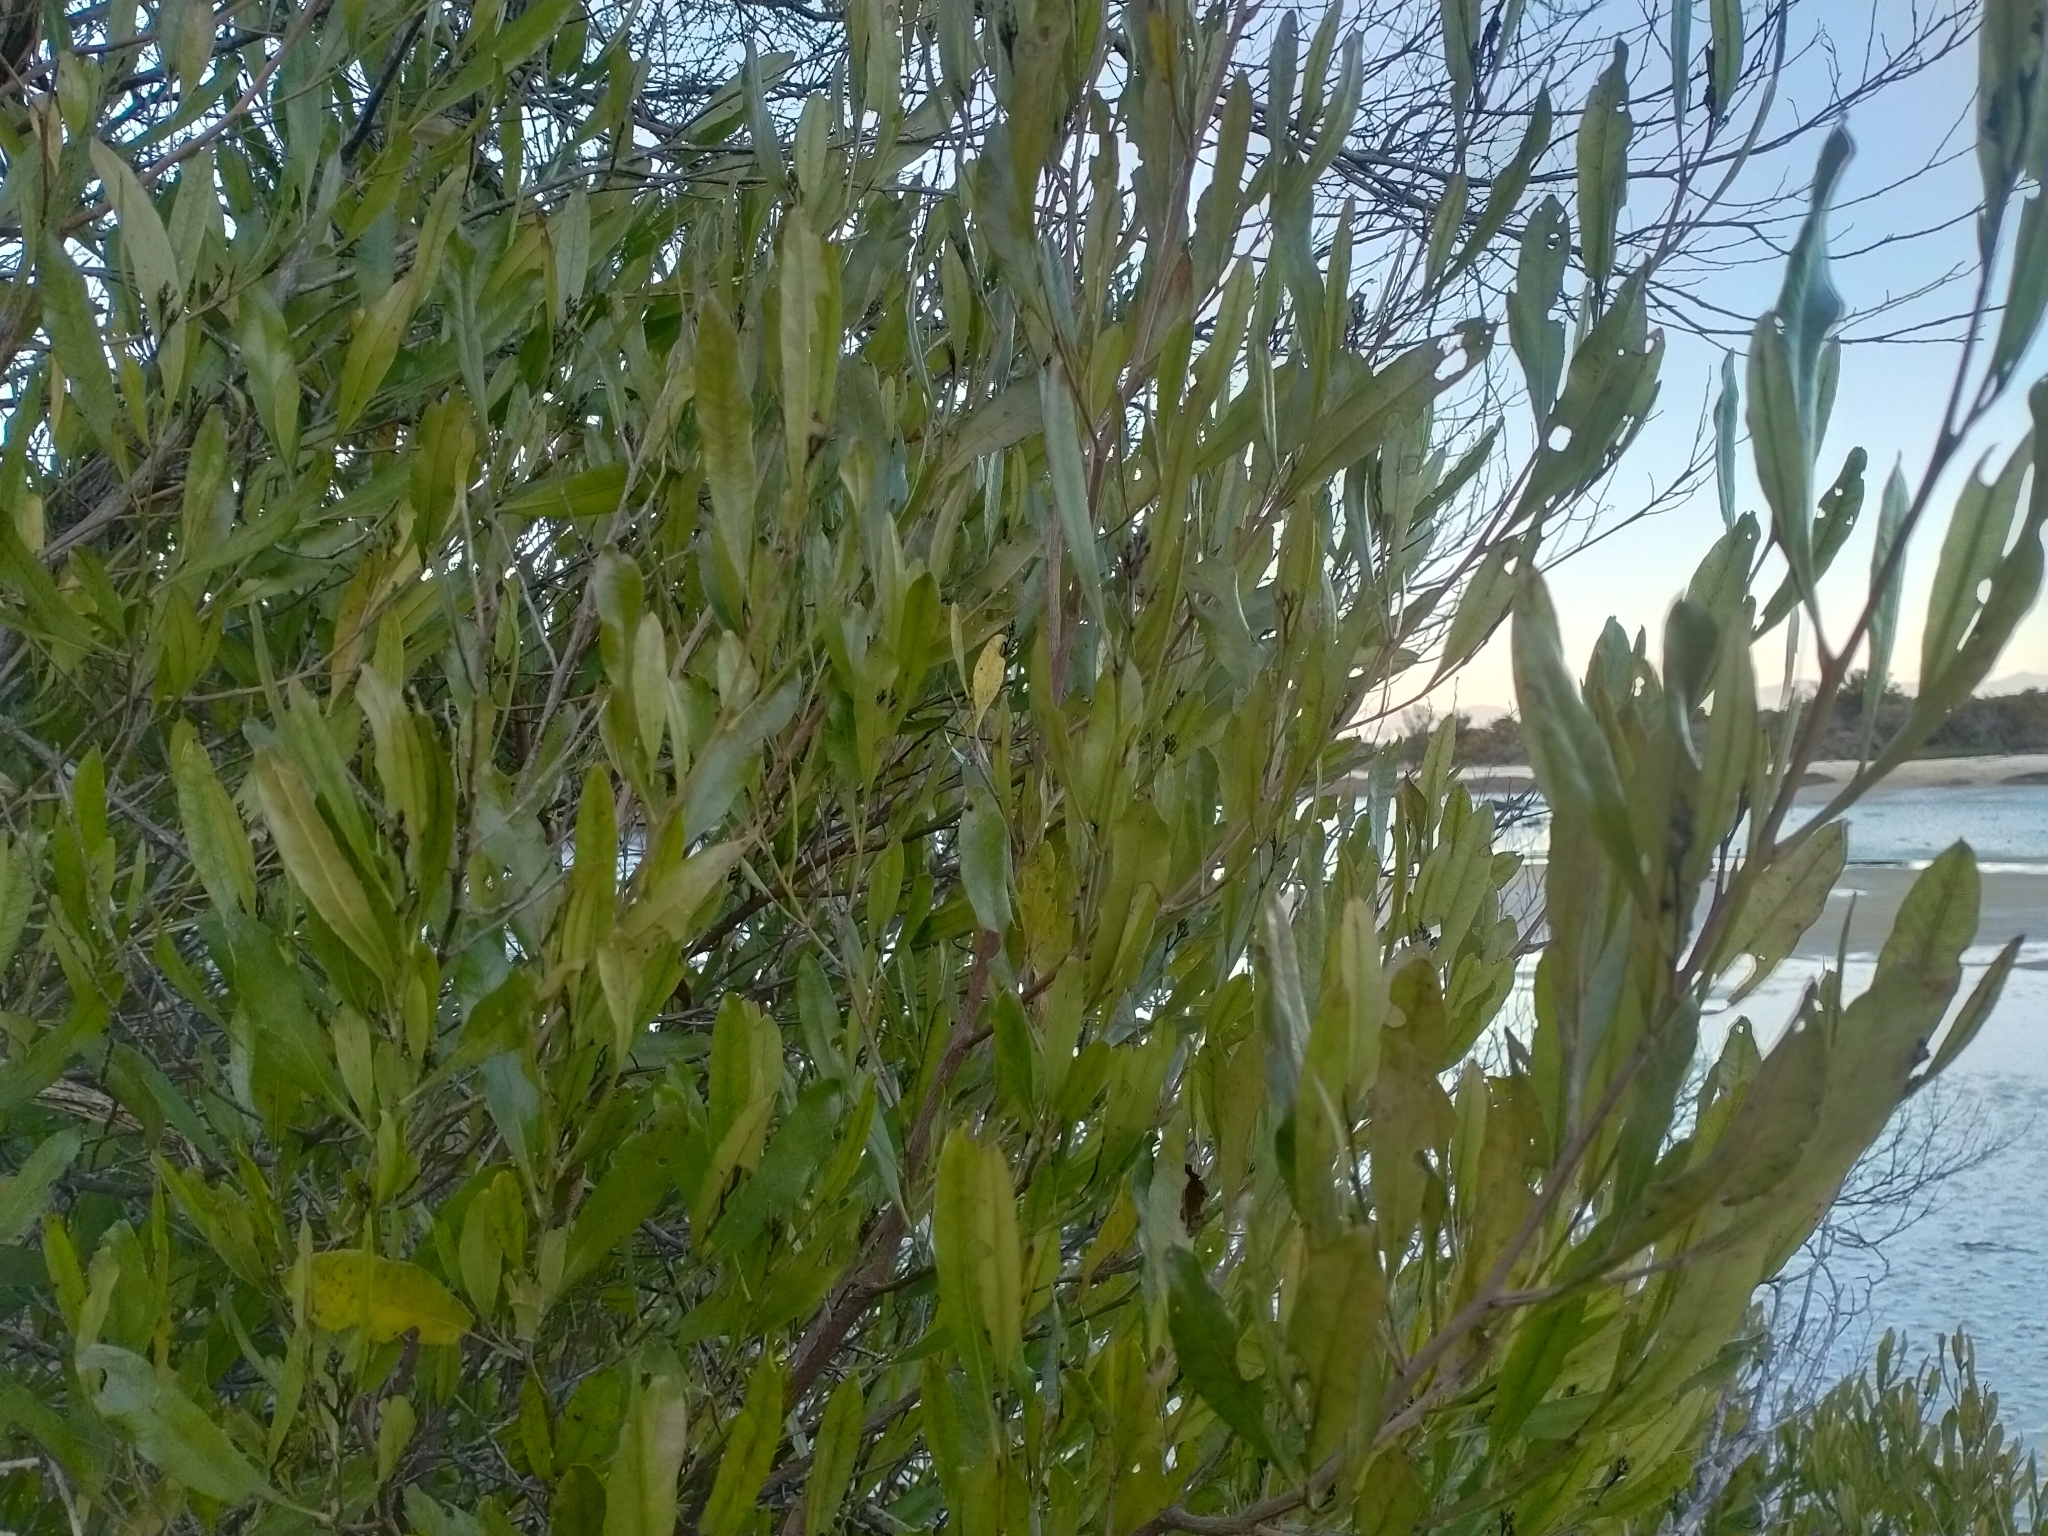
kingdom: Plantae
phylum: Tracheophyta
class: Magnoliopsida
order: Sapindales
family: Sapindaceae
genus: Dodonaea
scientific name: Dodonaea viscosa
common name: Hopbush
